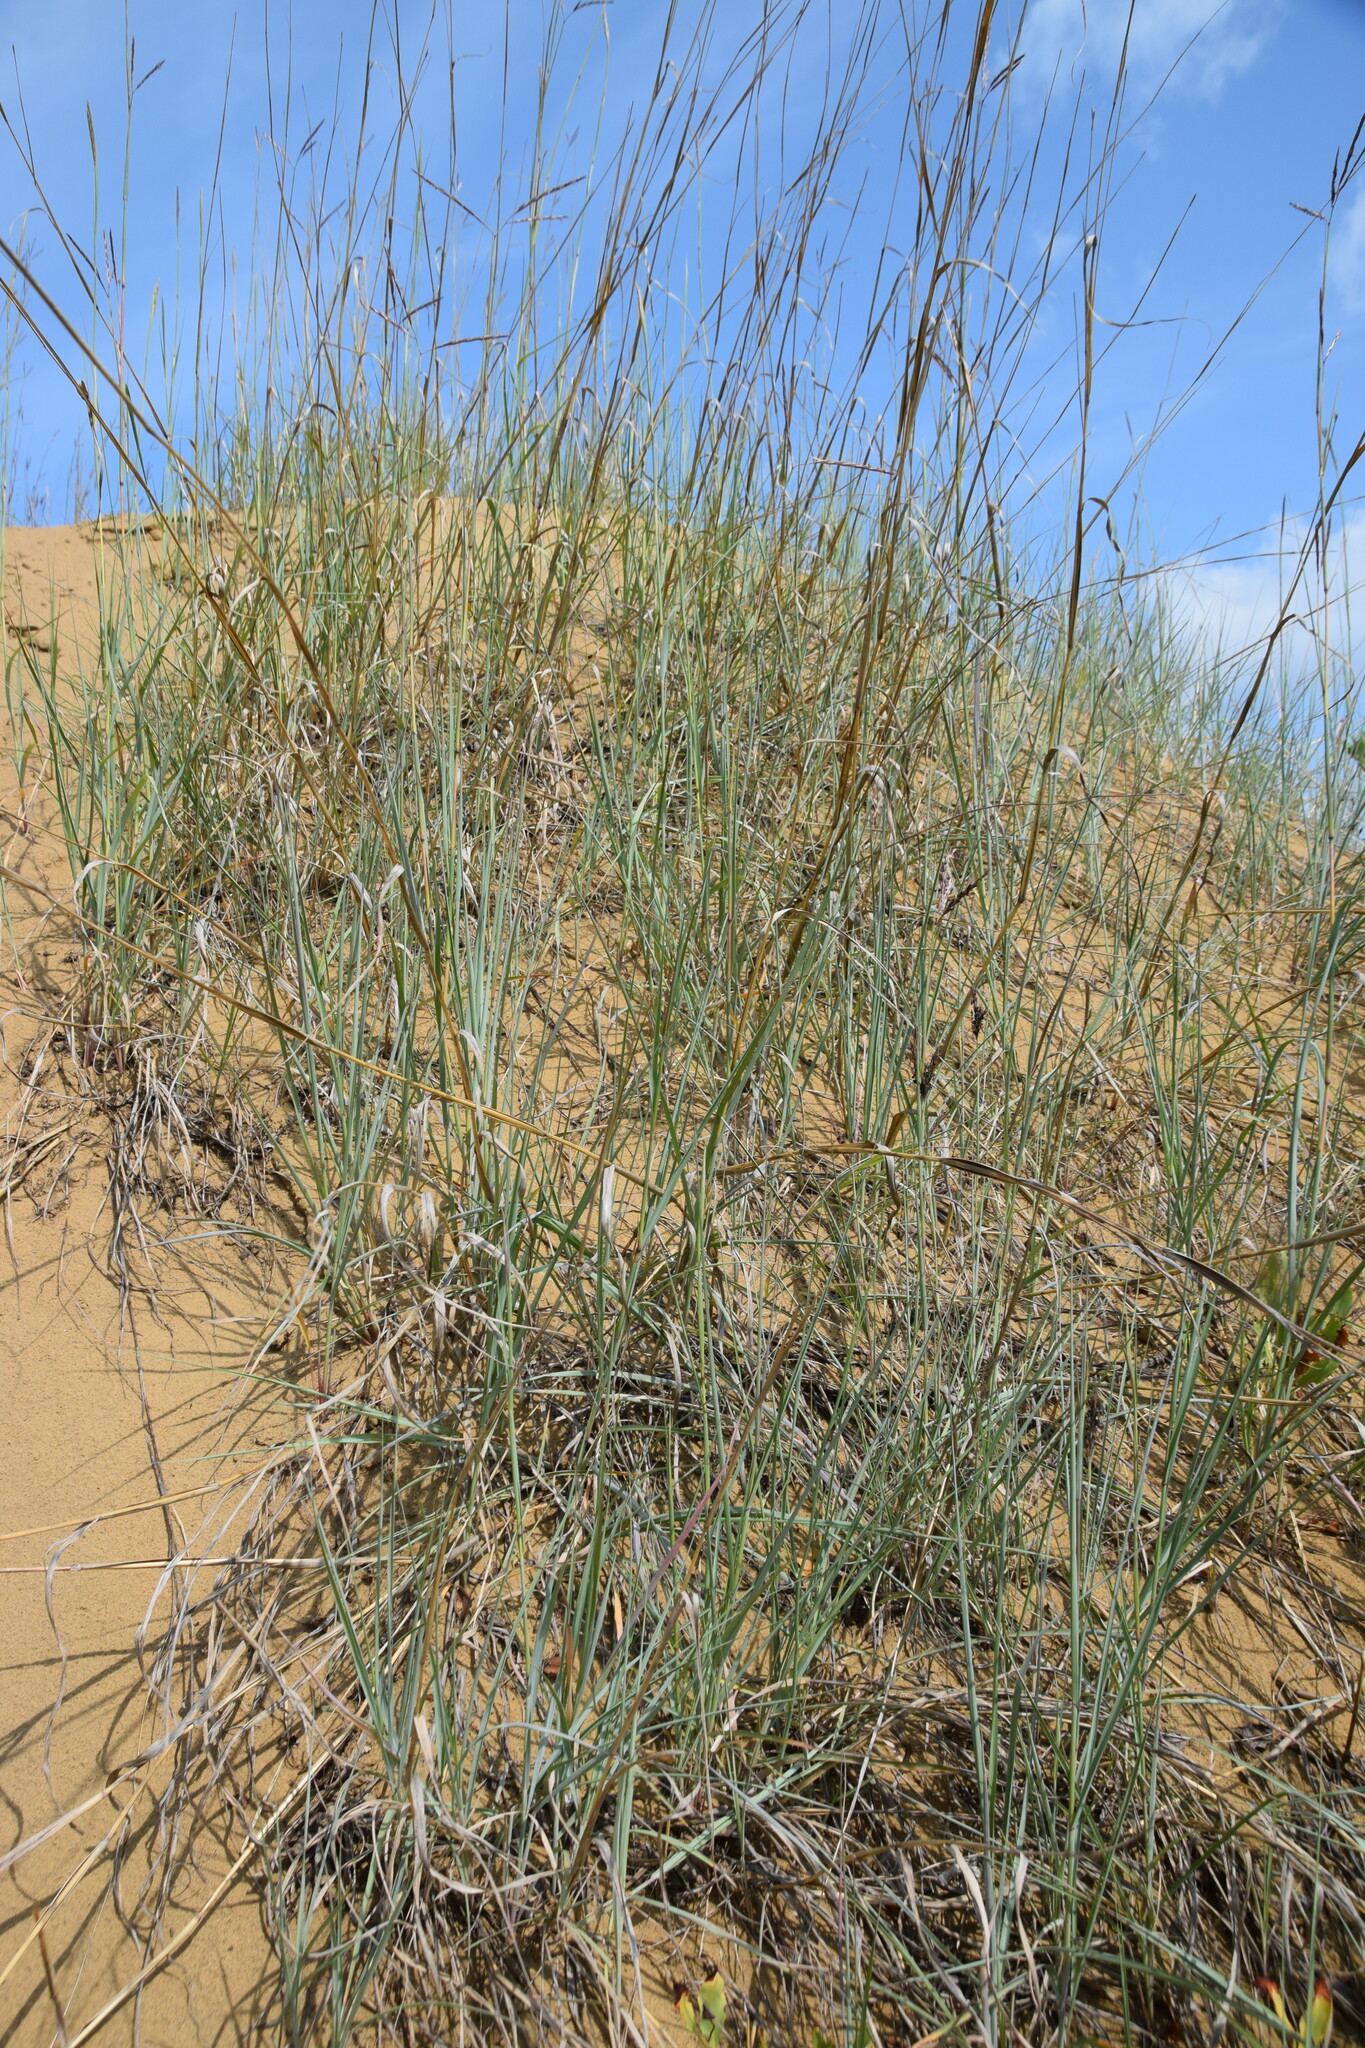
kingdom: Plantae
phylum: Tracheophyta
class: Liliopsida
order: Poales
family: Poaceae
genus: Andropogon
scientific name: Andropogon hallii
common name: Sand bluestem
